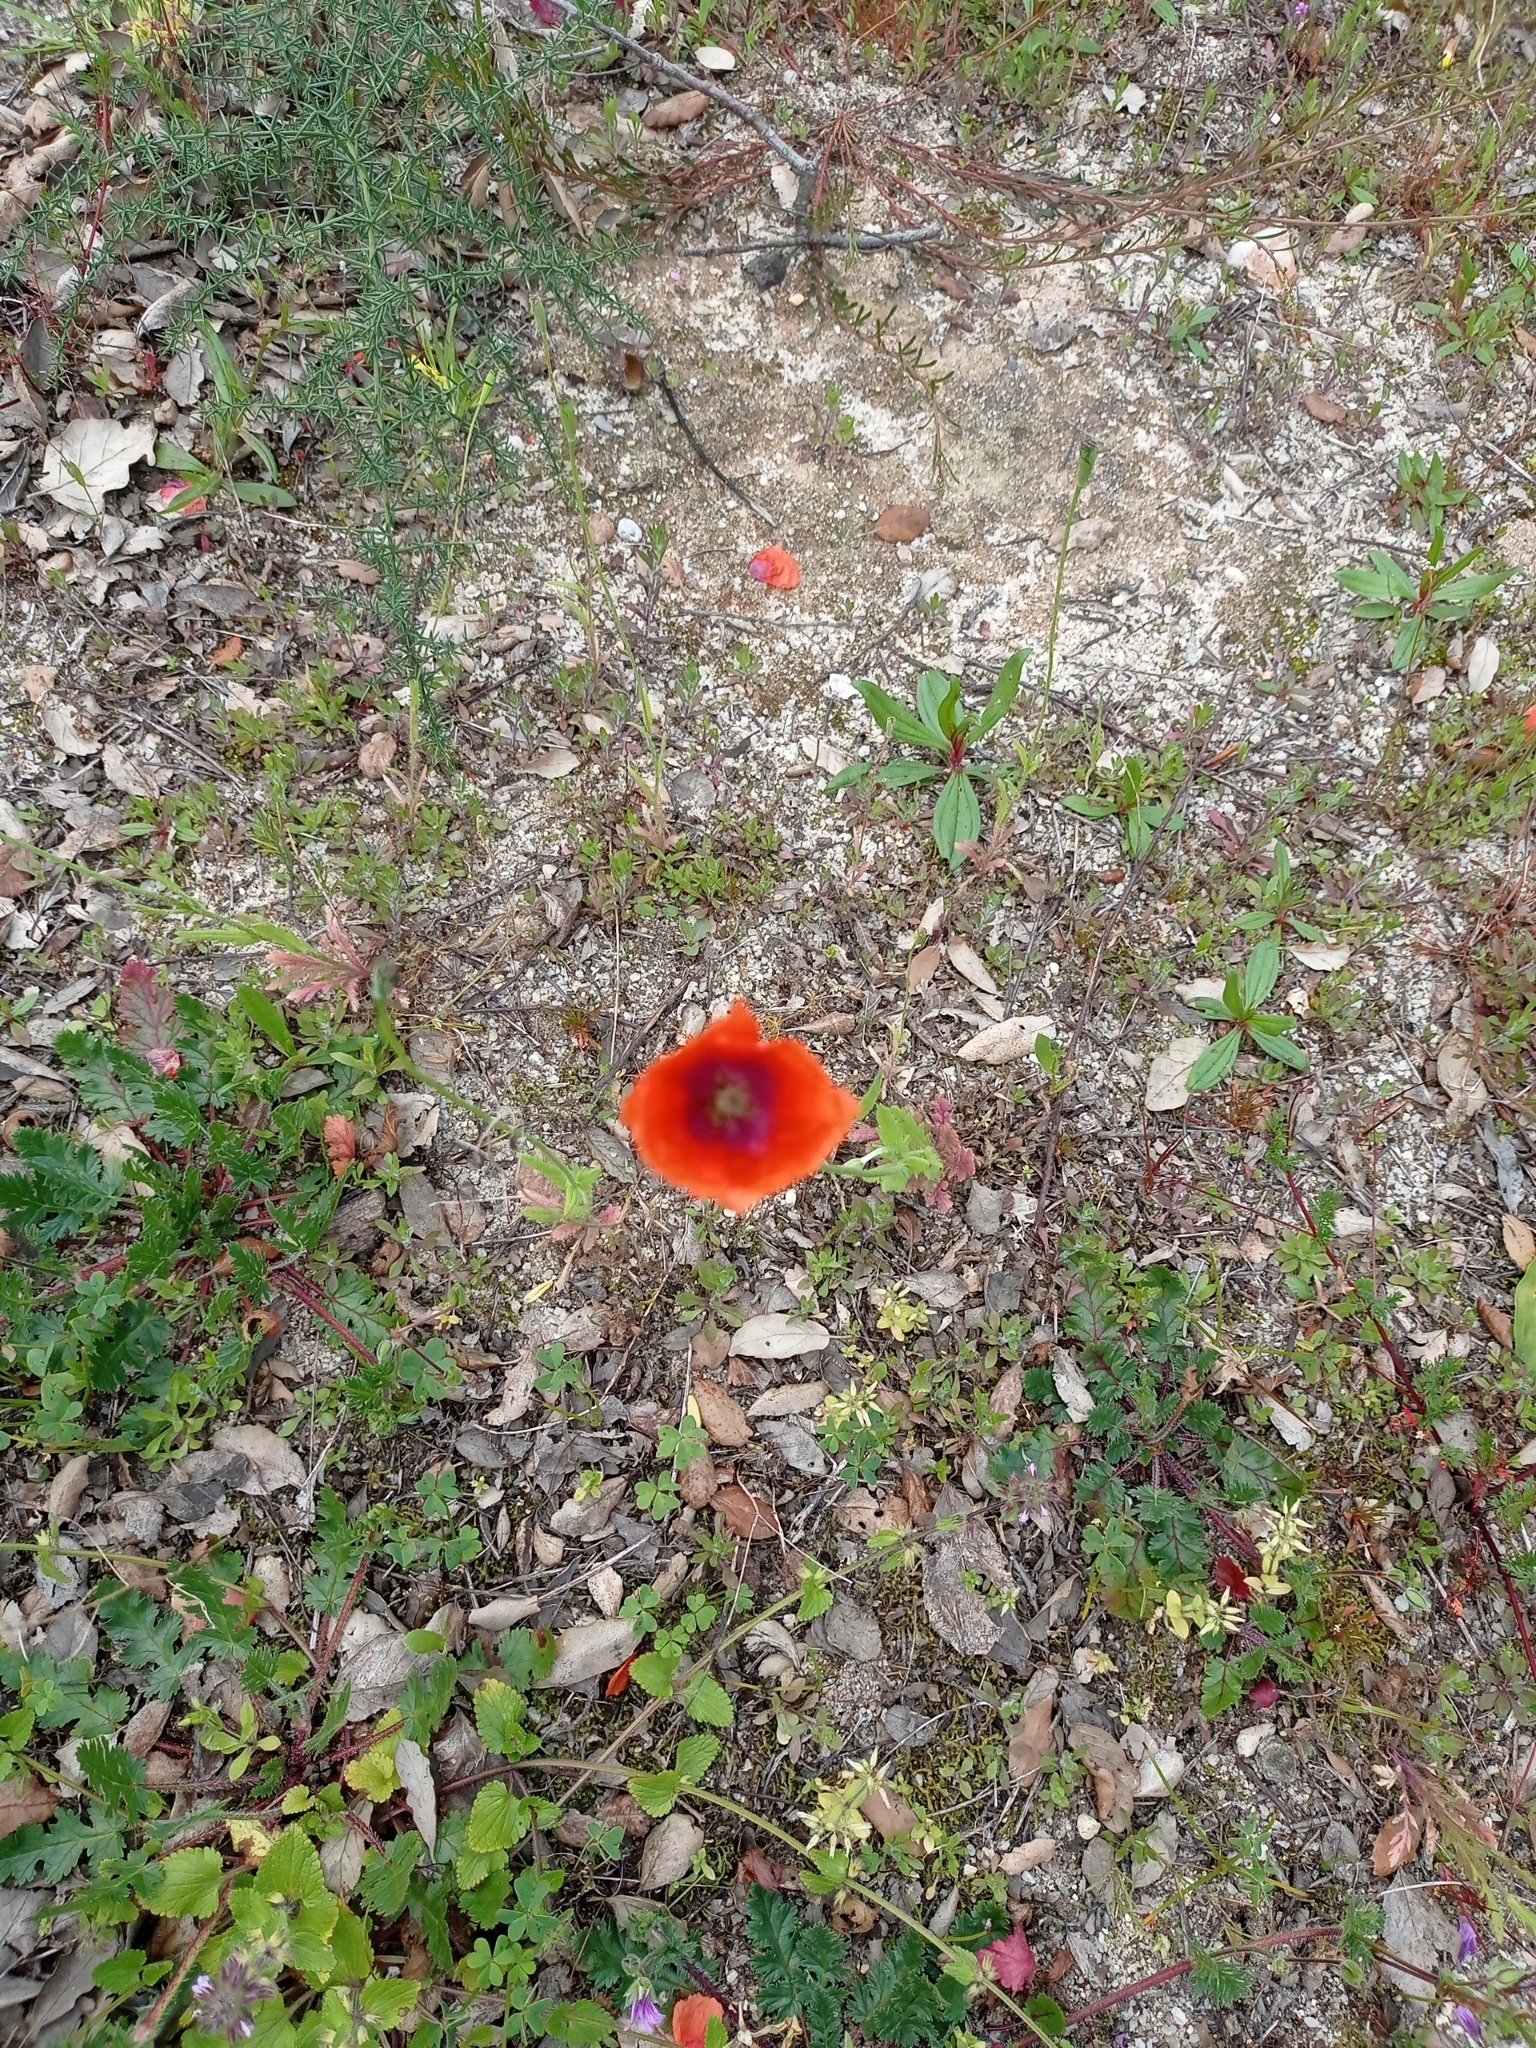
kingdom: Plantae
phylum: Tracheophyta
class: Magnoliopsida
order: Ranunculales
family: Papaveraceae
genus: Papaver
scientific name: Papaver dubium
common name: Long-headed poppy
